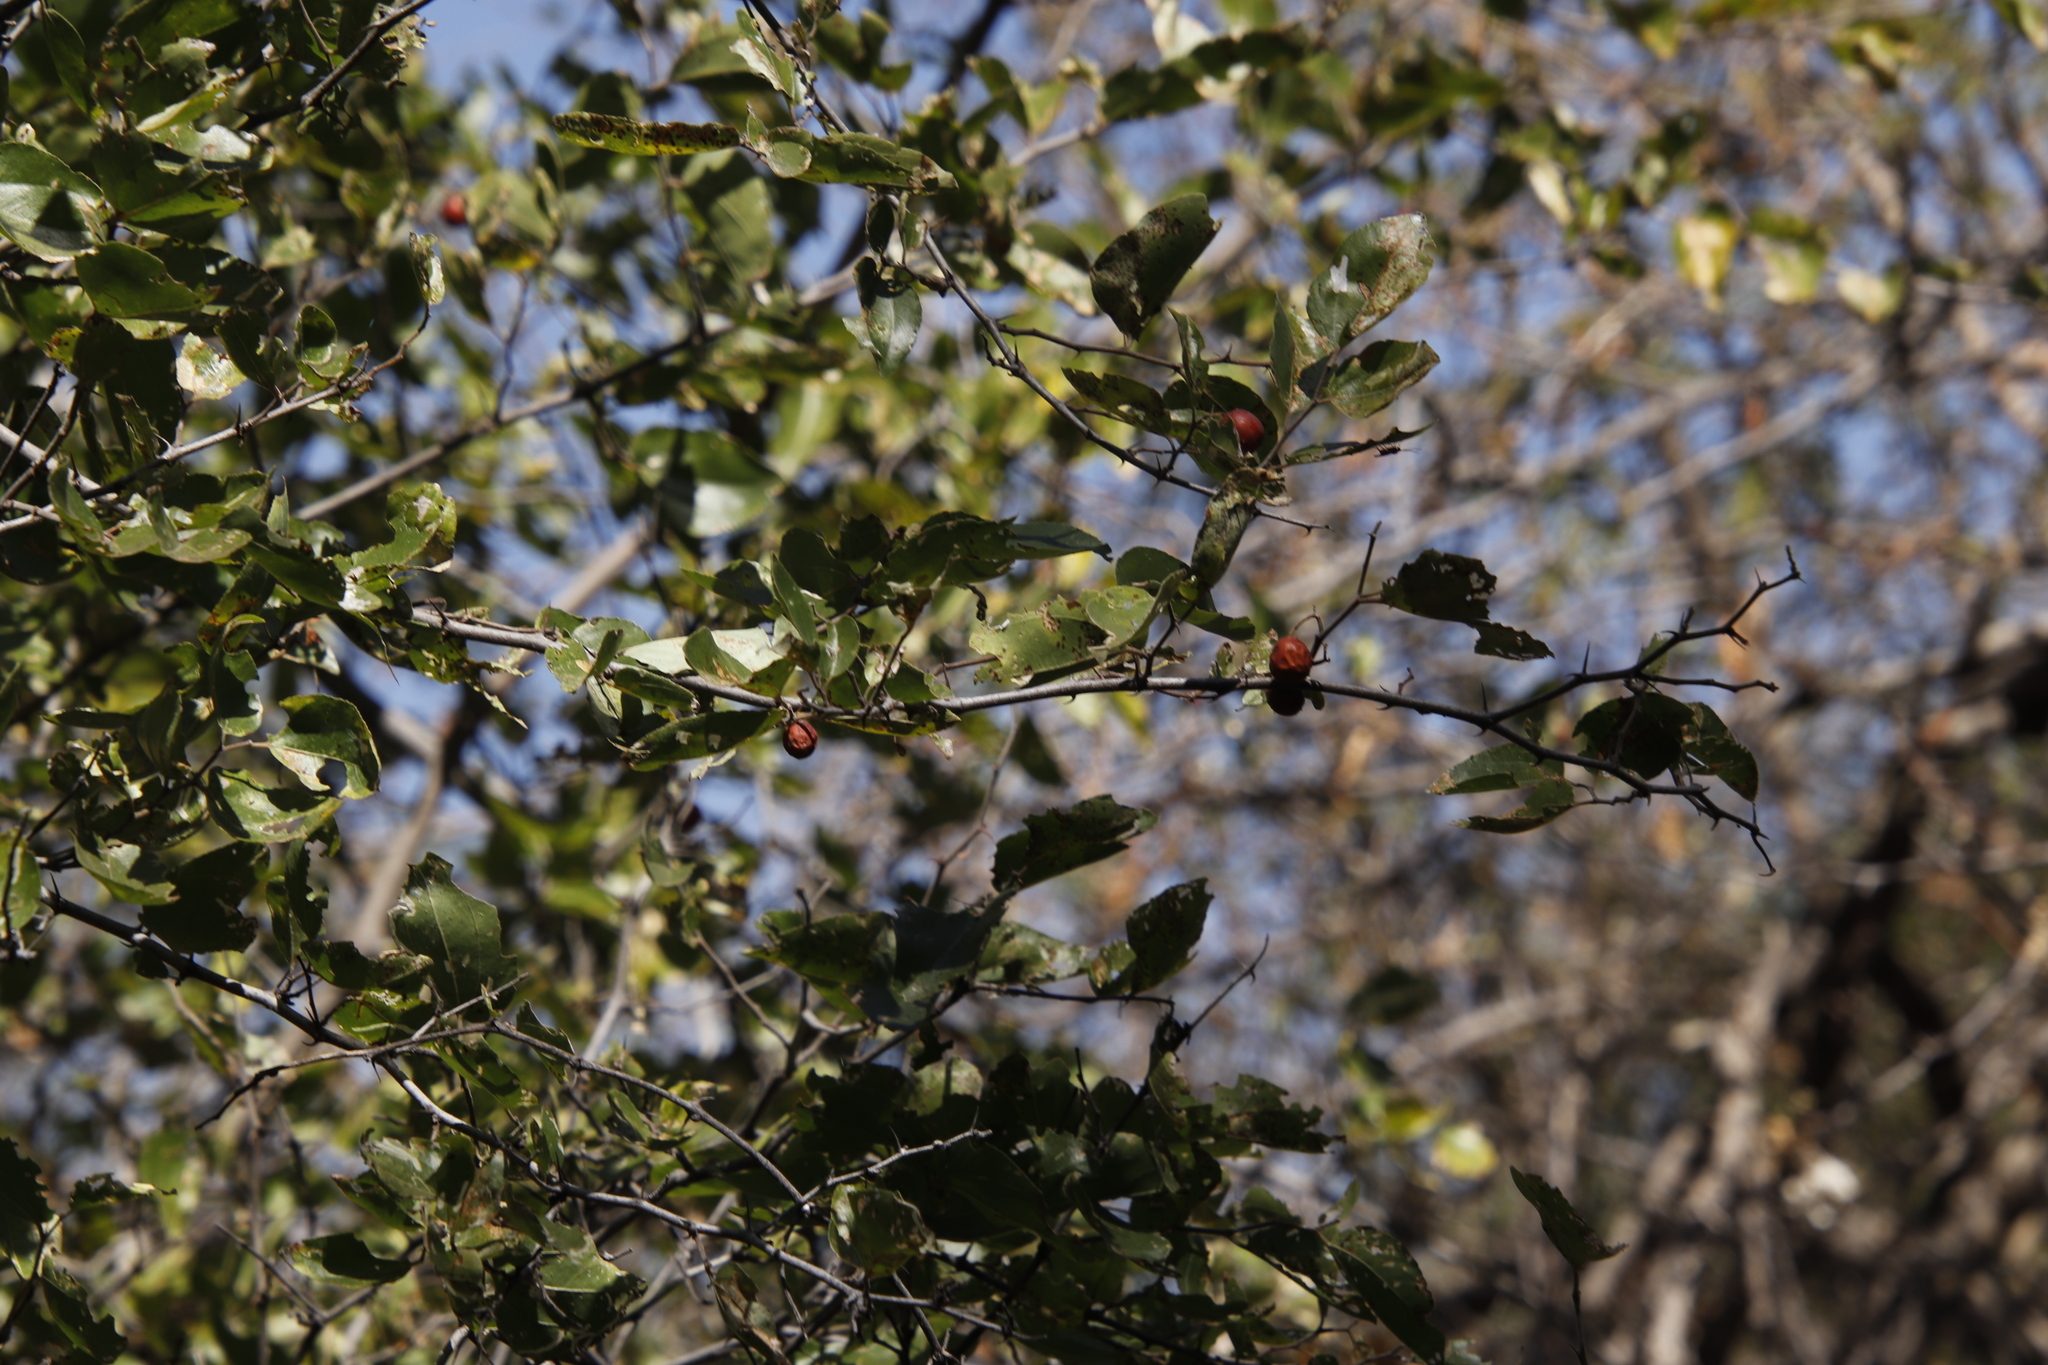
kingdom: Plantae
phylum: Tracheophyta
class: Magnoliopsida
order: Rosales
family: Rhamnaceae
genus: Ziziphus
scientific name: Ziziphus mucronata
